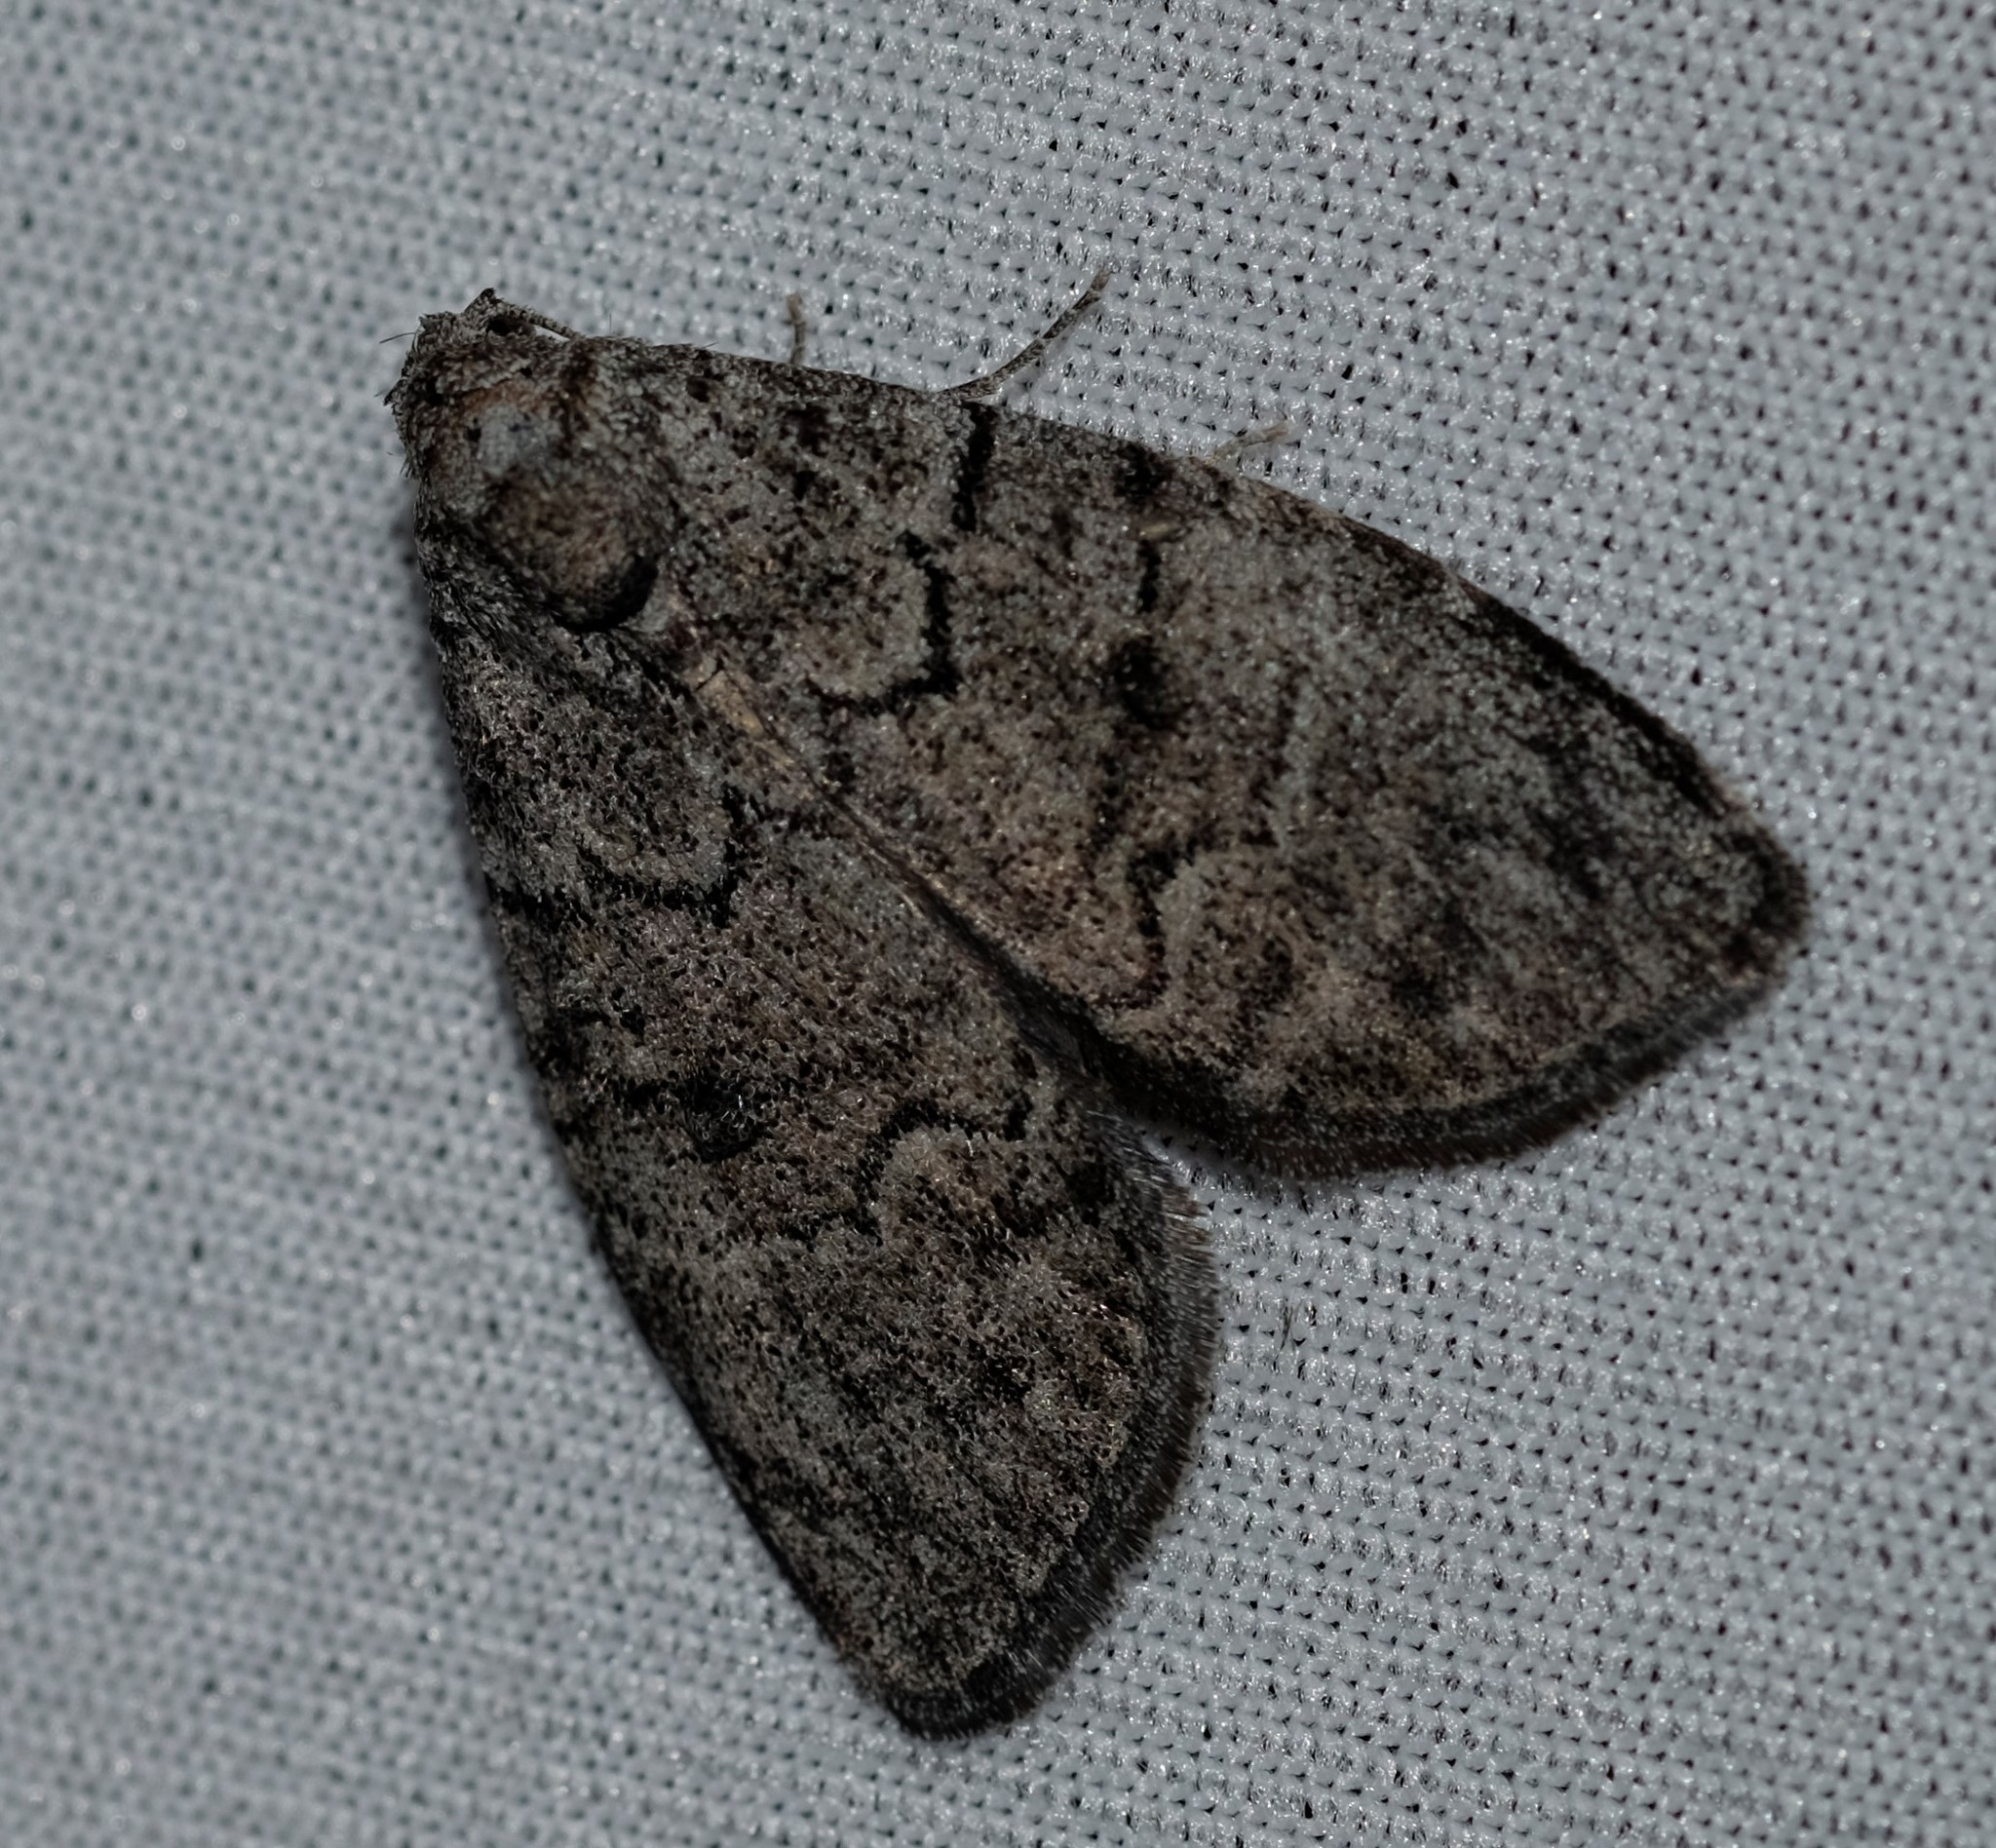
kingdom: Animalia
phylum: Arthropoda
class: Insecta
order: Lepidoptera
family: Nolidae
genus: Uraba
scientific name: Uraba lugens
